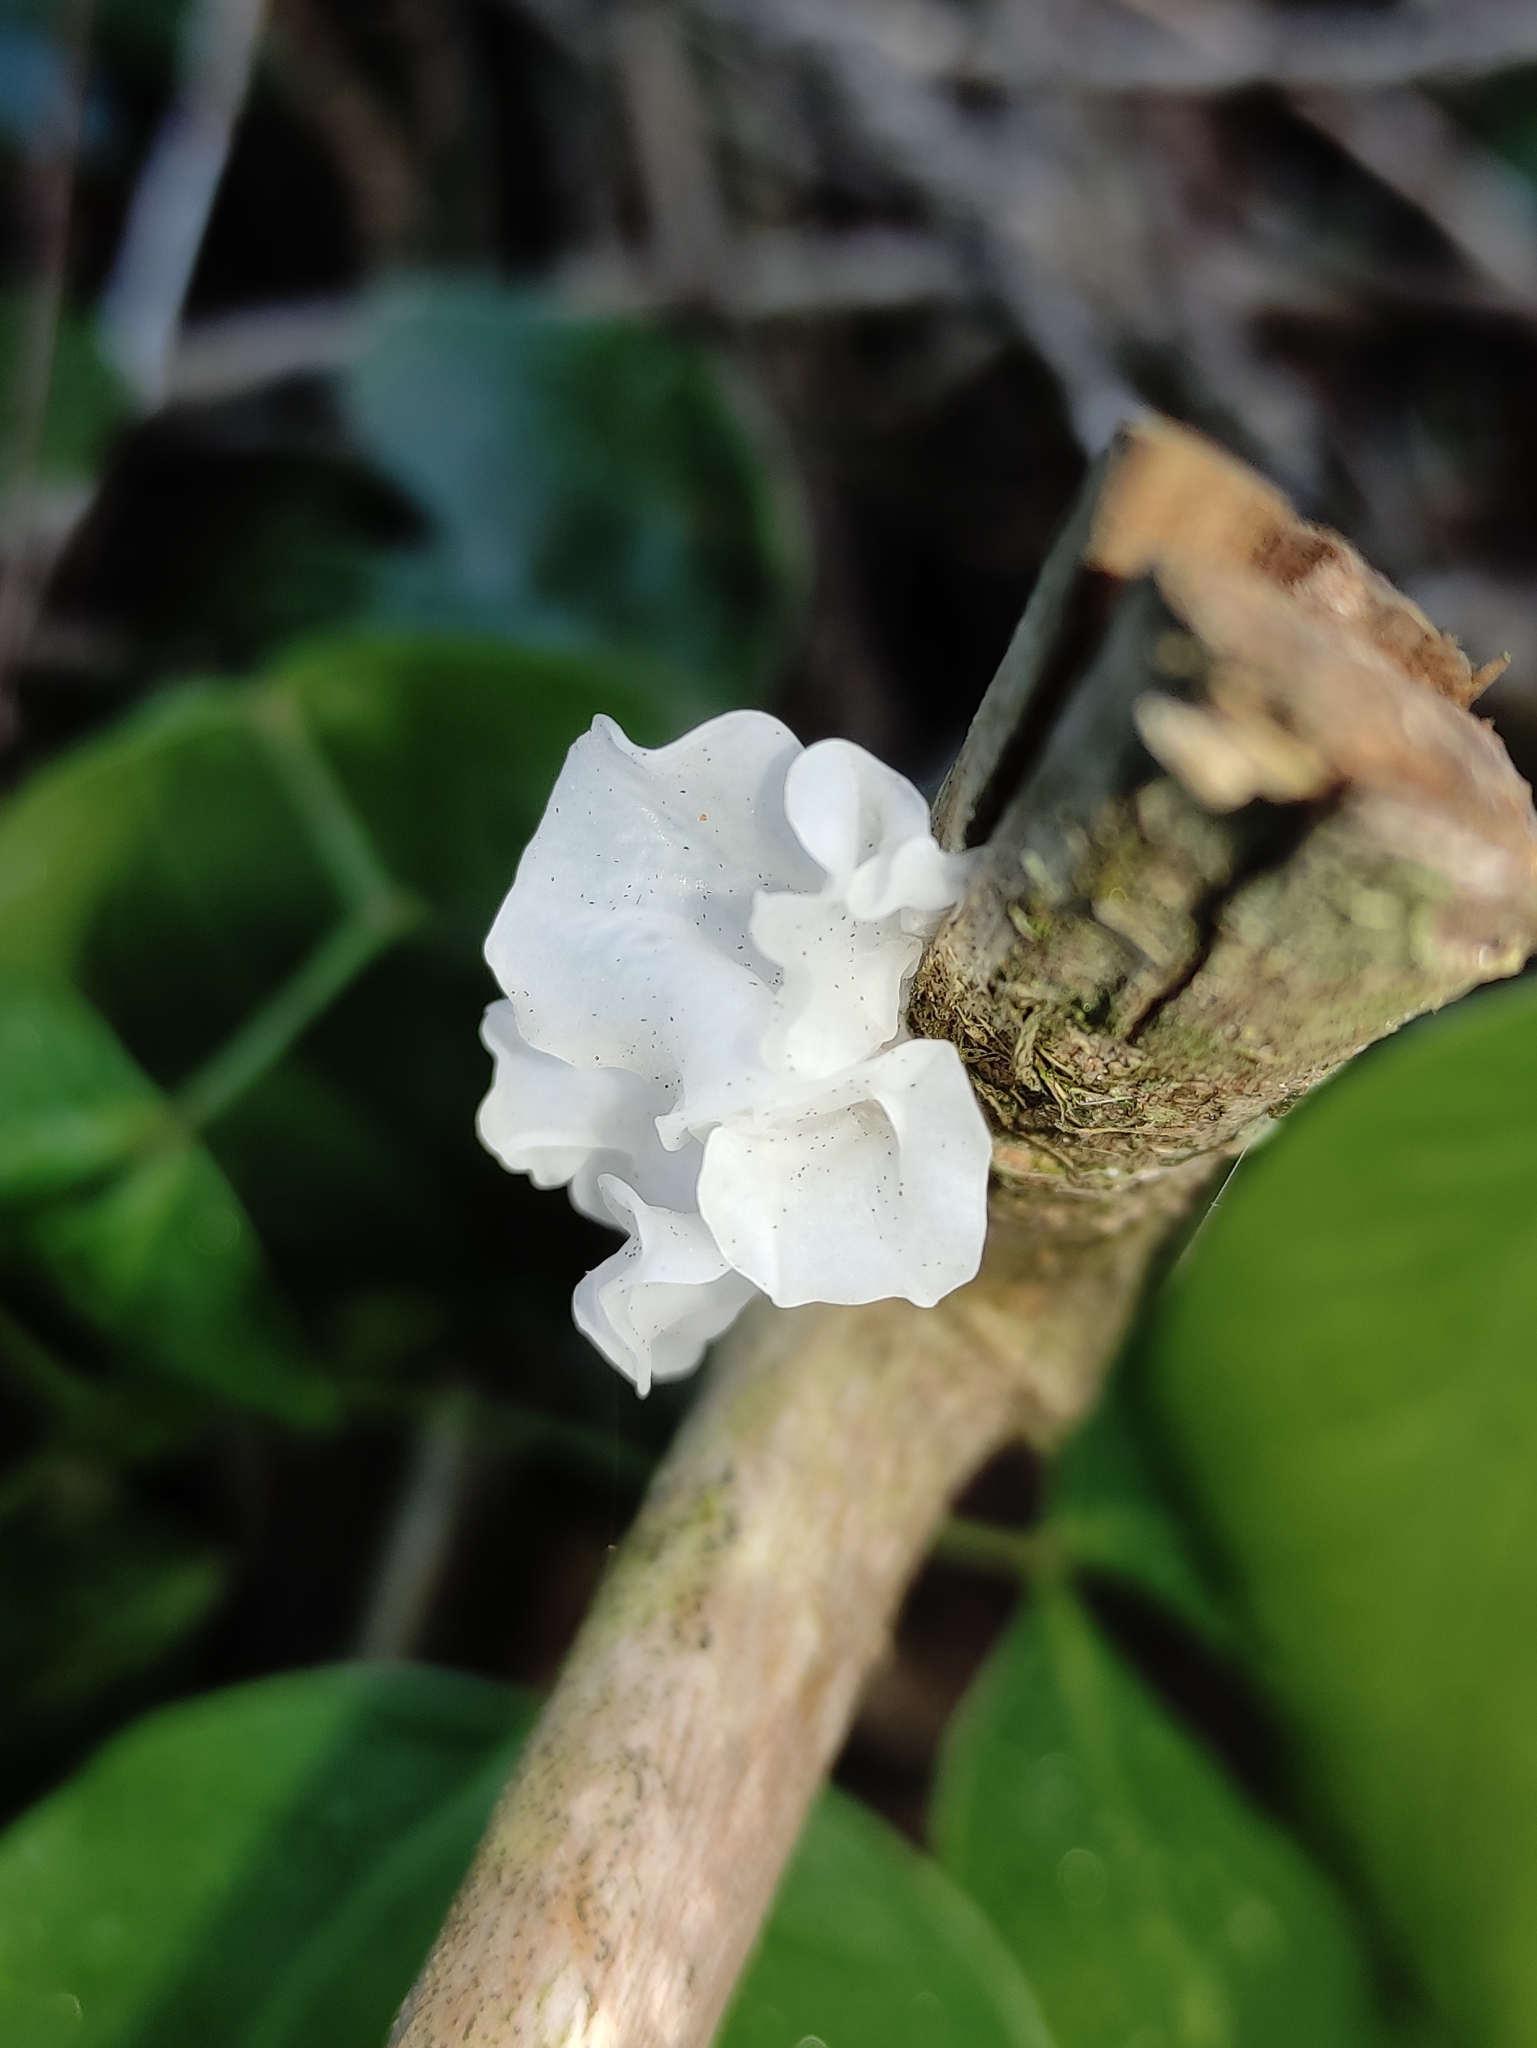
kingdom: Fungi
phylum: Basidiomycota
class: Tremellomycetes
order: Tremellales
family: Tremellaceae
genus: Tremella
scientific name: Tremella fuciformis
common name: Snow fungus
